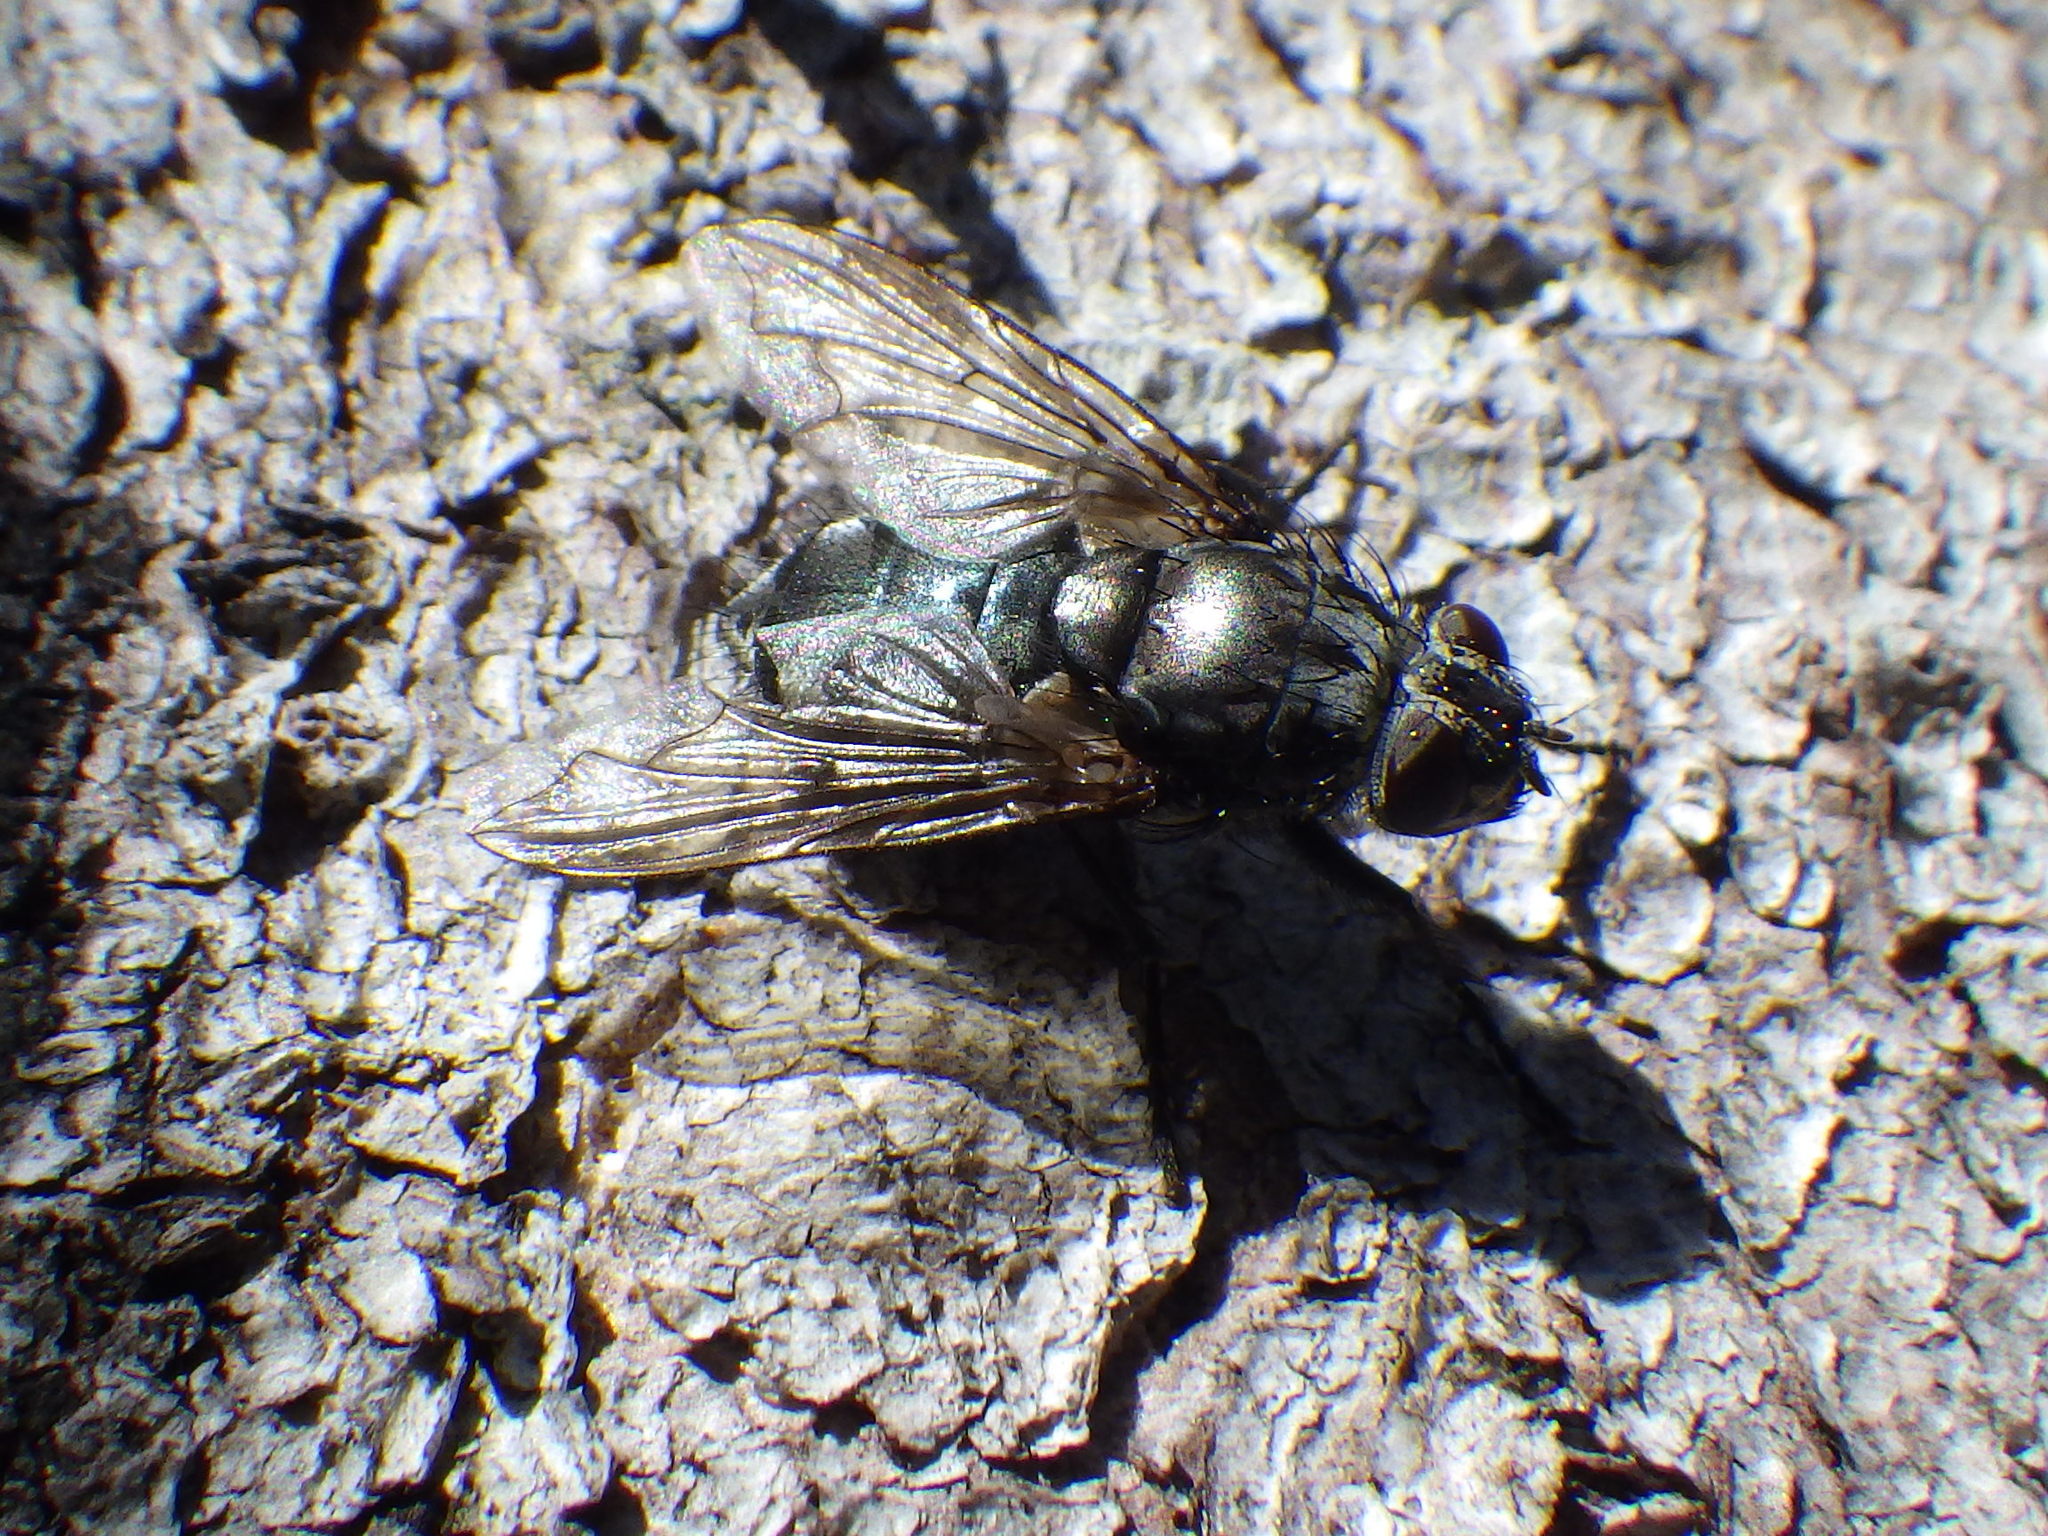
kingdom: Animalia
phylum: Arthropoda
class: Insecta
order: Diptera
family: Polleniidae
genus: Pollenia
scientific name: Pollenia vagabunda
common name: Vagabund cluster fly
